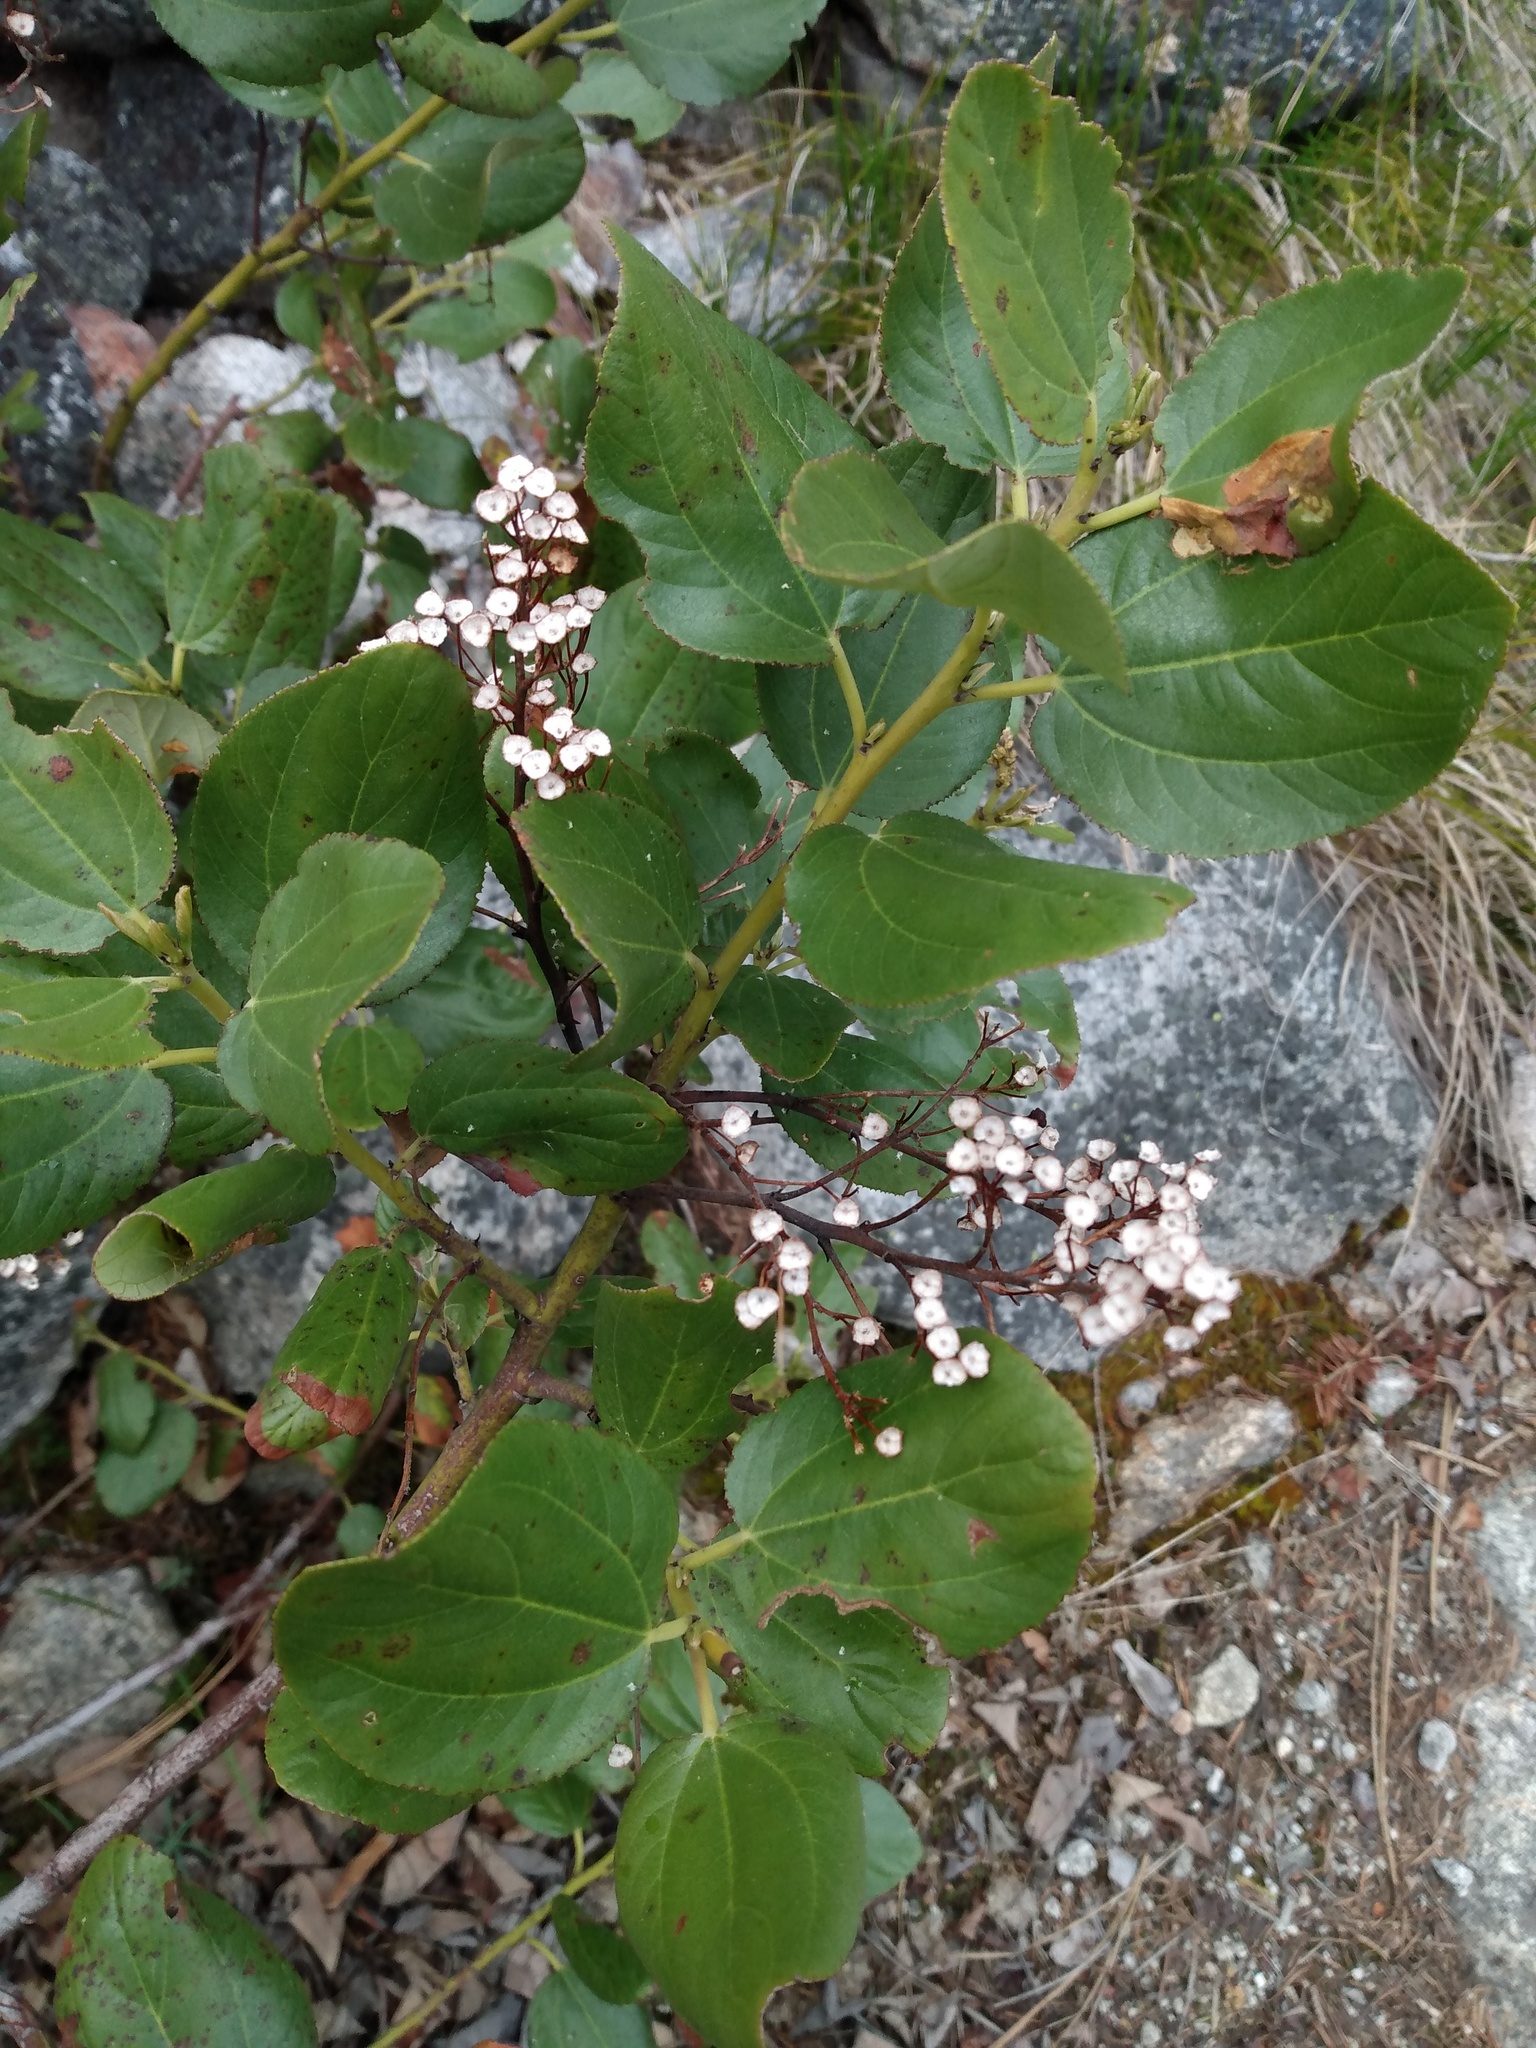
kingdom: Plantae
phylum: Tracheophyta
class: Magnoliopsida
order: Rosales
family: Rhamnaceae
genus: Ceanothus
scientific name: Ceanothus velutinus
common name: Snowbrush
